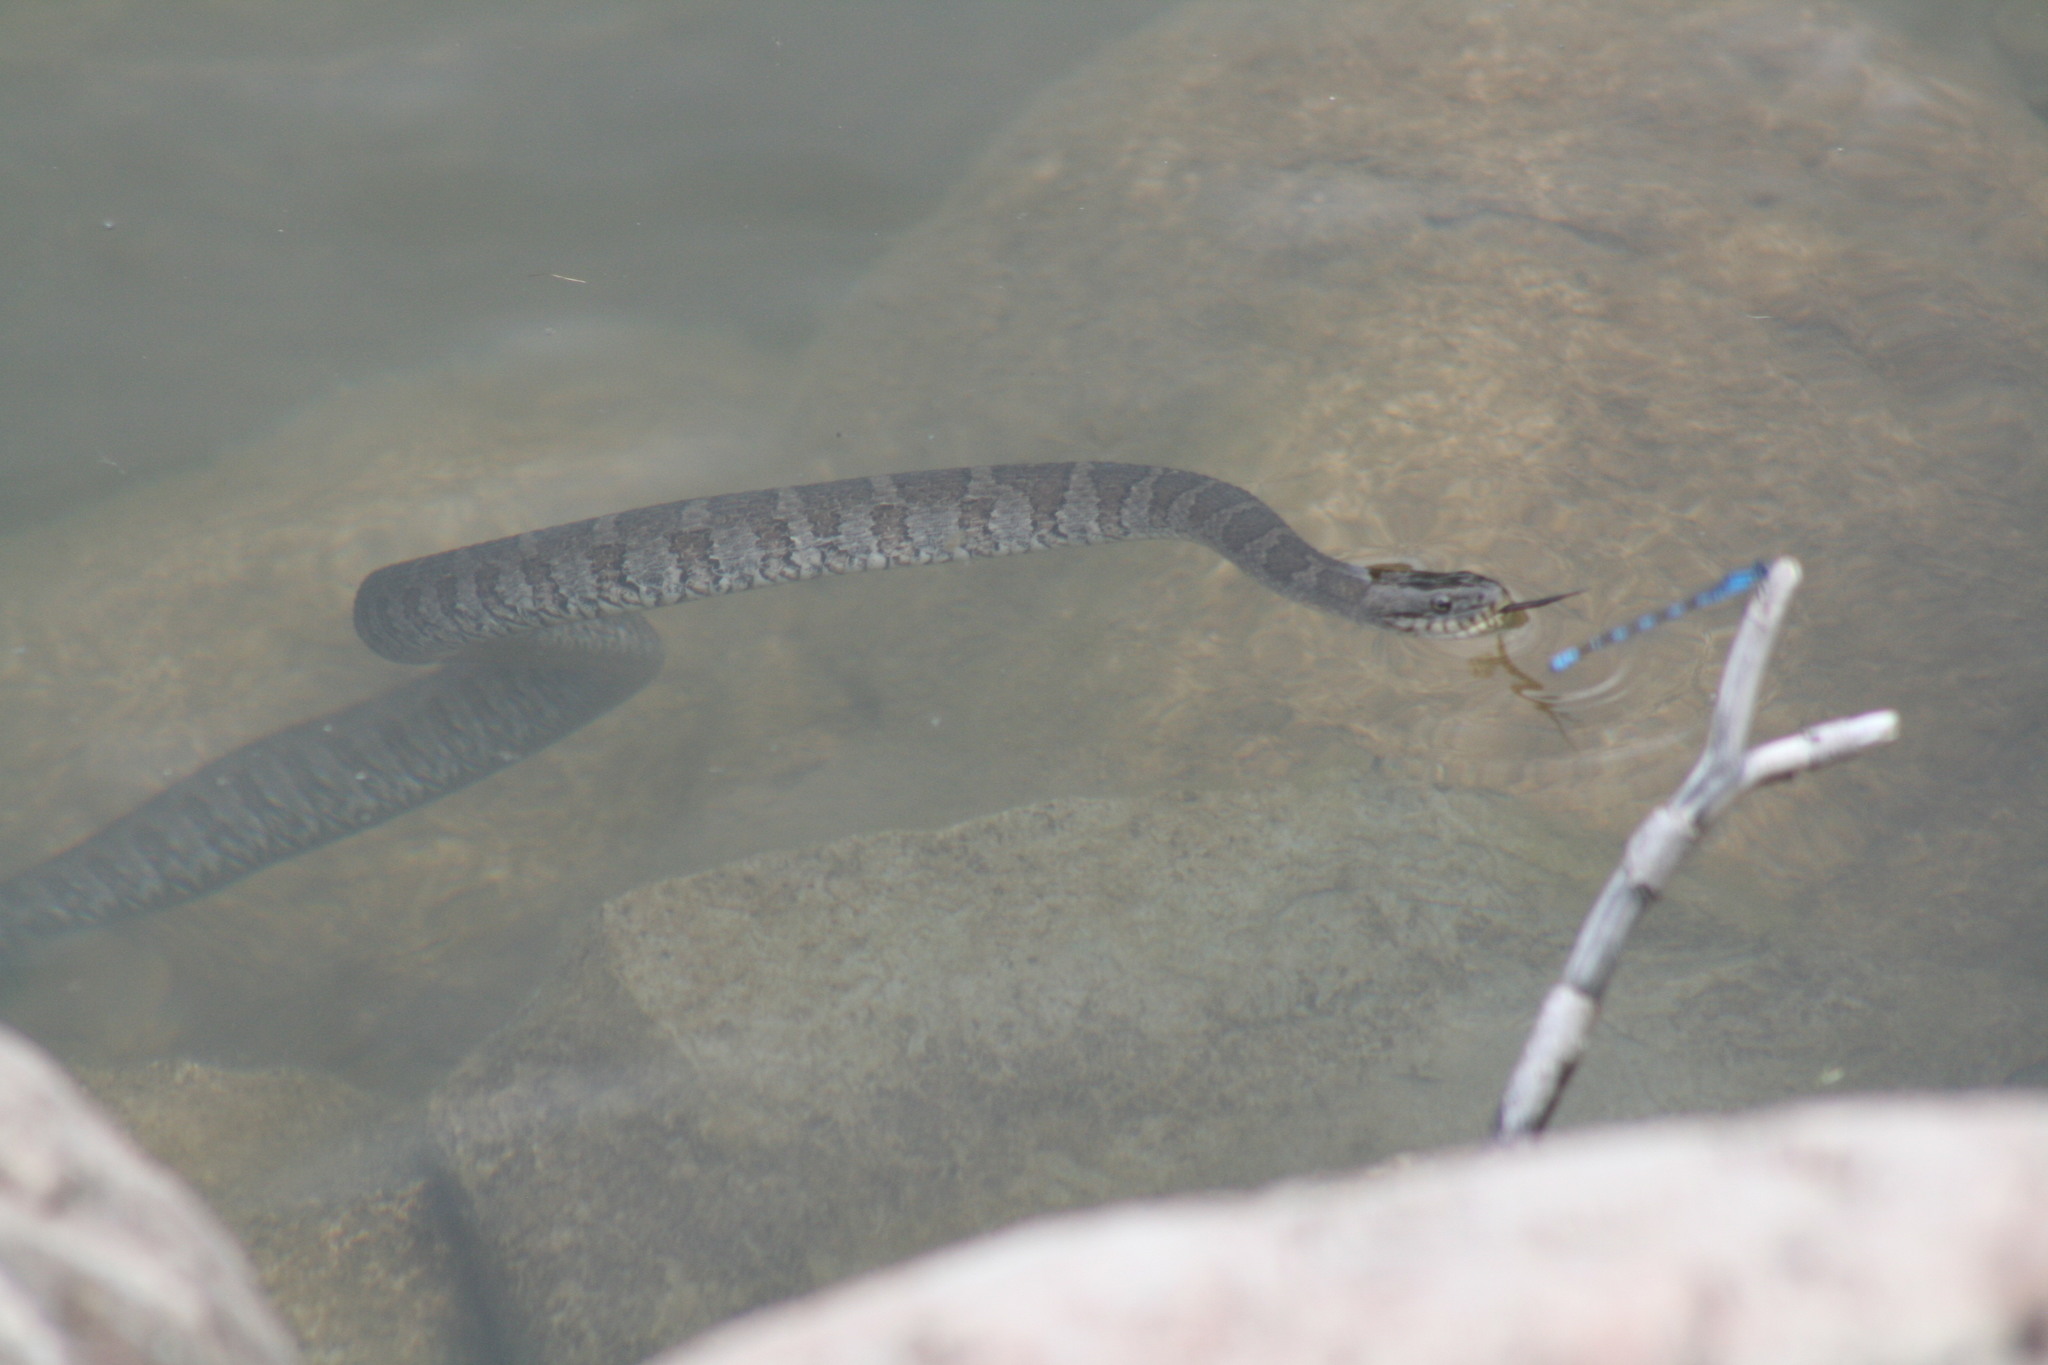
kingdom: Animalia
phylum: Chordata
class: Squamata
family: Colubridae
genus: Nerodia
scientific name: Nerodia sipedon
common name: Northern water snake
